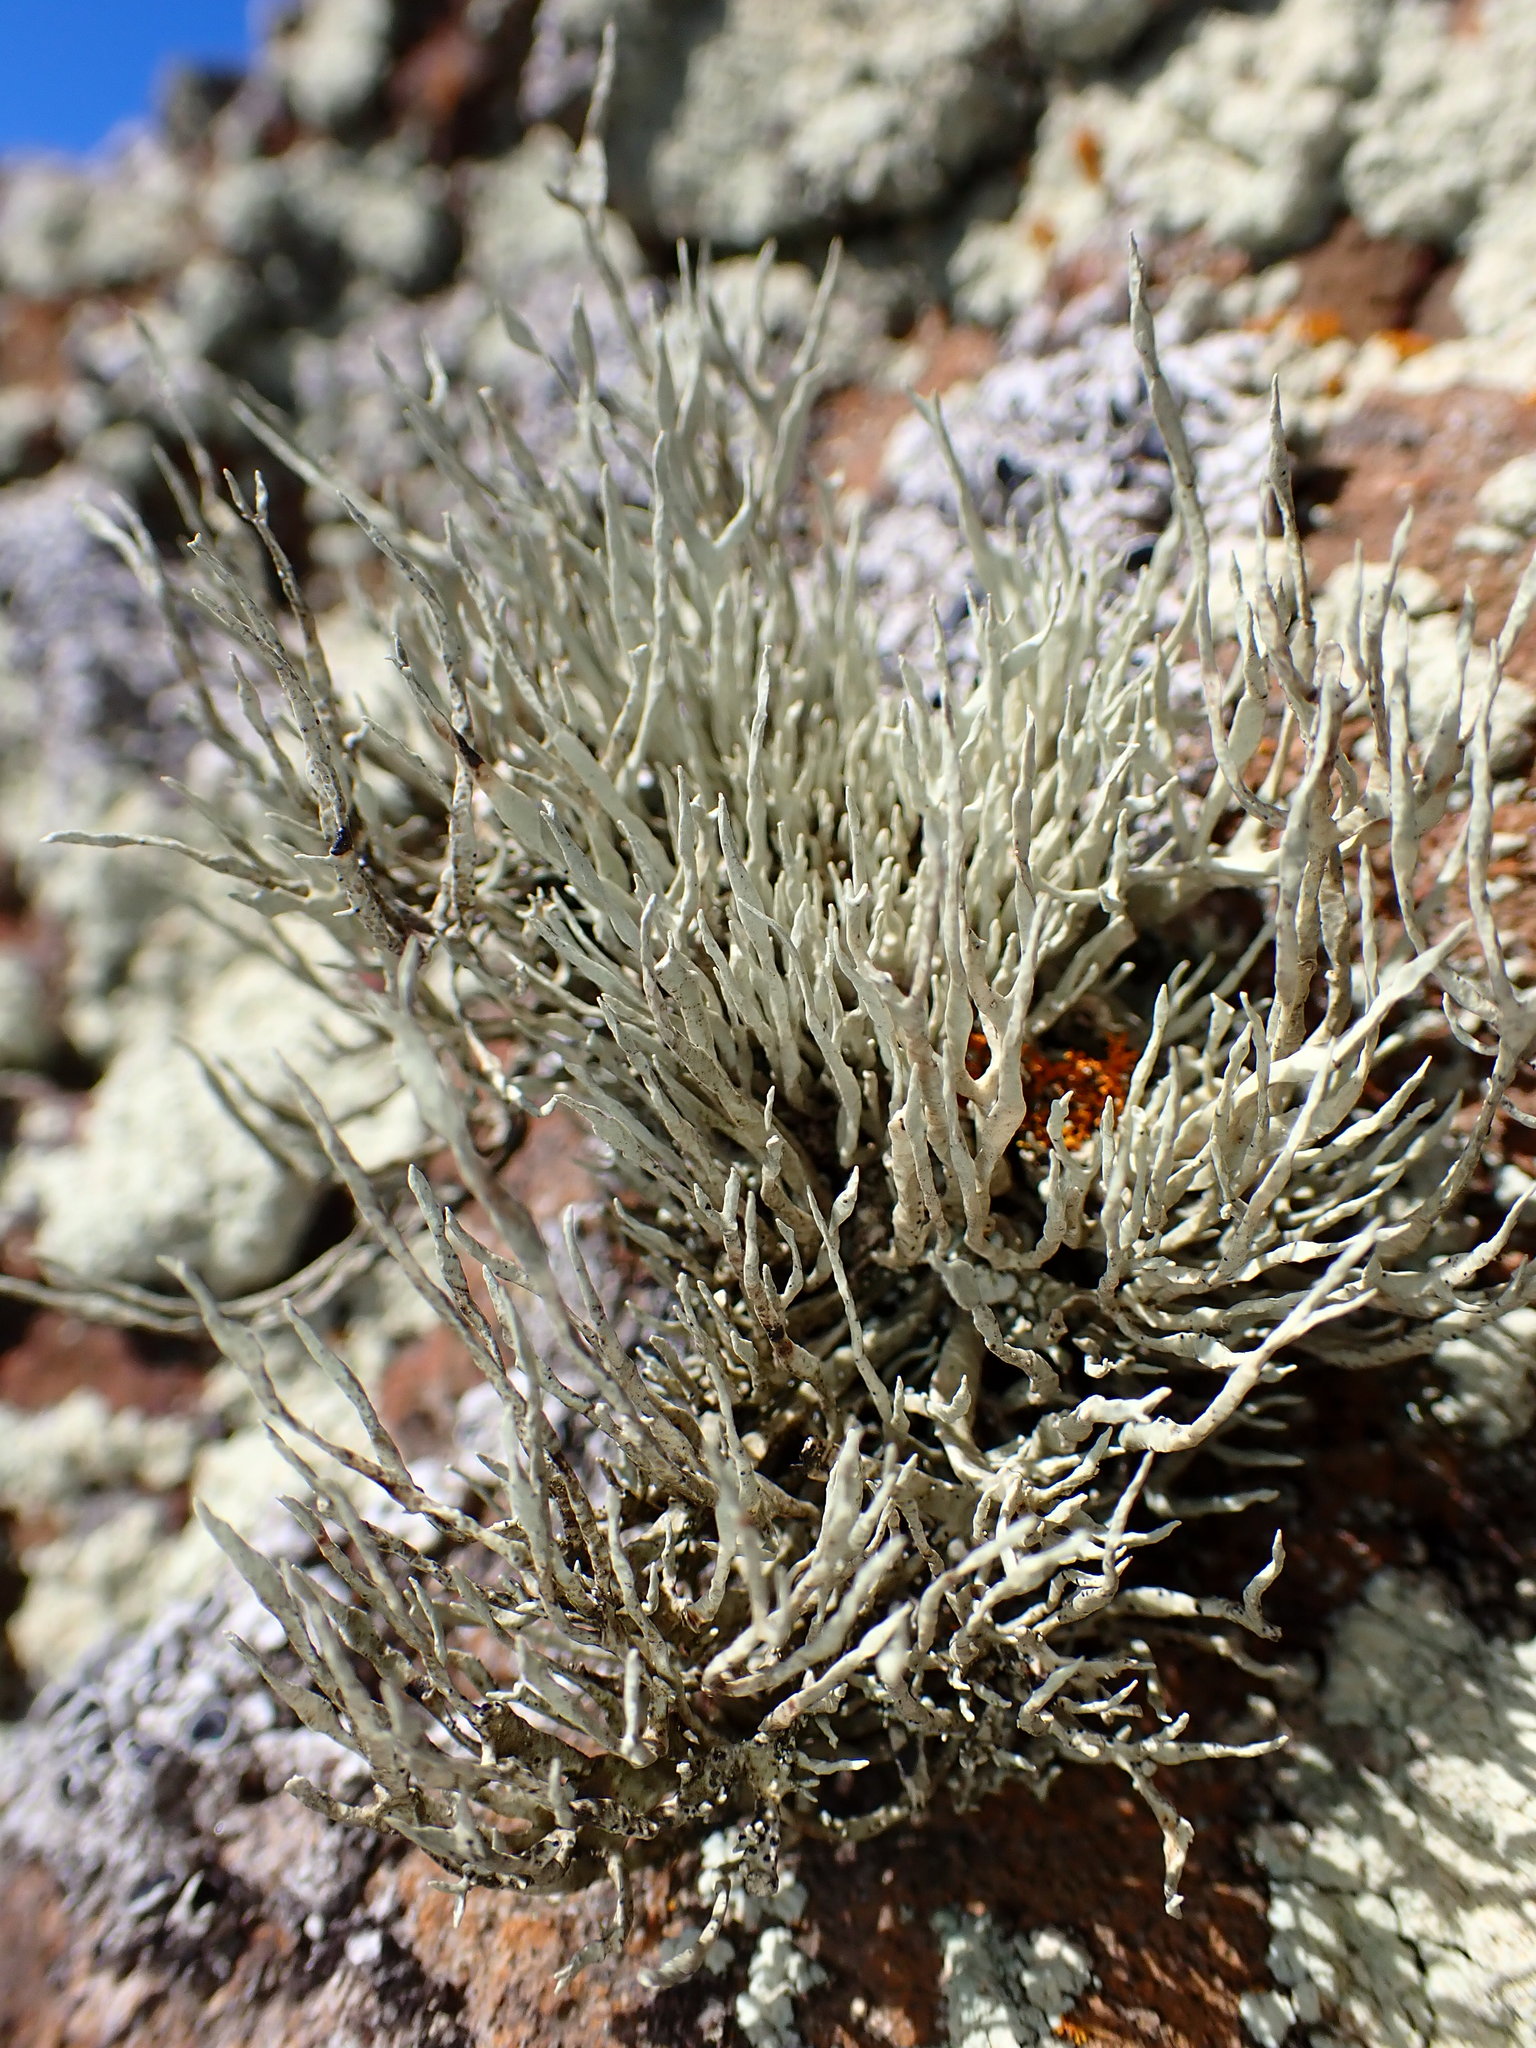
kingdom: Fungi
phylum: Ascomycota
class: Lecanoromycetes
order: Lecanorales
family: Ramalinaceae
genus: Niebla
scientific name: Niebla homalea
